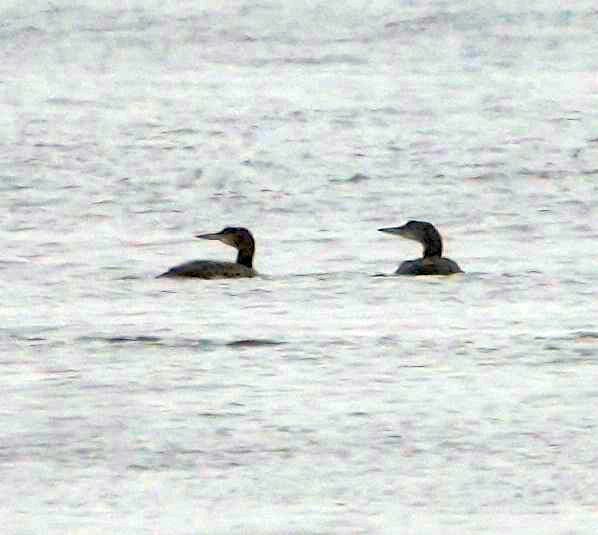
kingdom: Animalia
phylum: Chordata
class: Aves
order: Gaviiformes
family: Gaviidae
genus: Gavia
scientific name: Gavia immer
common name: Common loon
